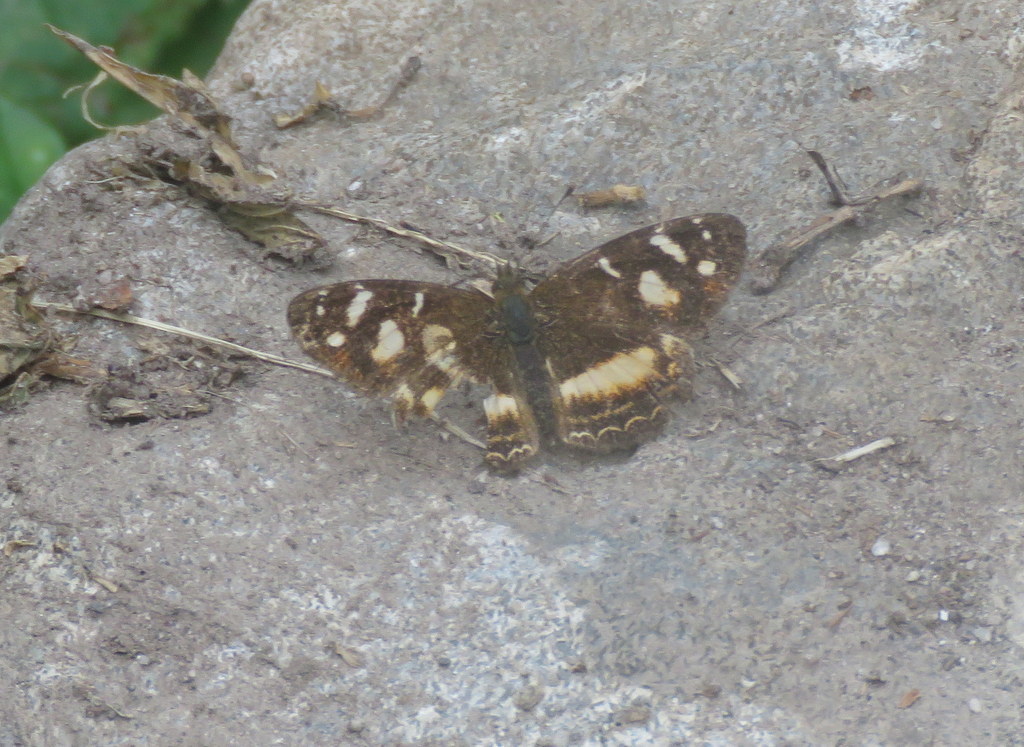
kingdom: Animalia
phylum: Arthropoda
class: Insecta
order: Lepidoptera
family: Nymphalidae
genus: Telenassa
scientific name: Telenassa berenice
